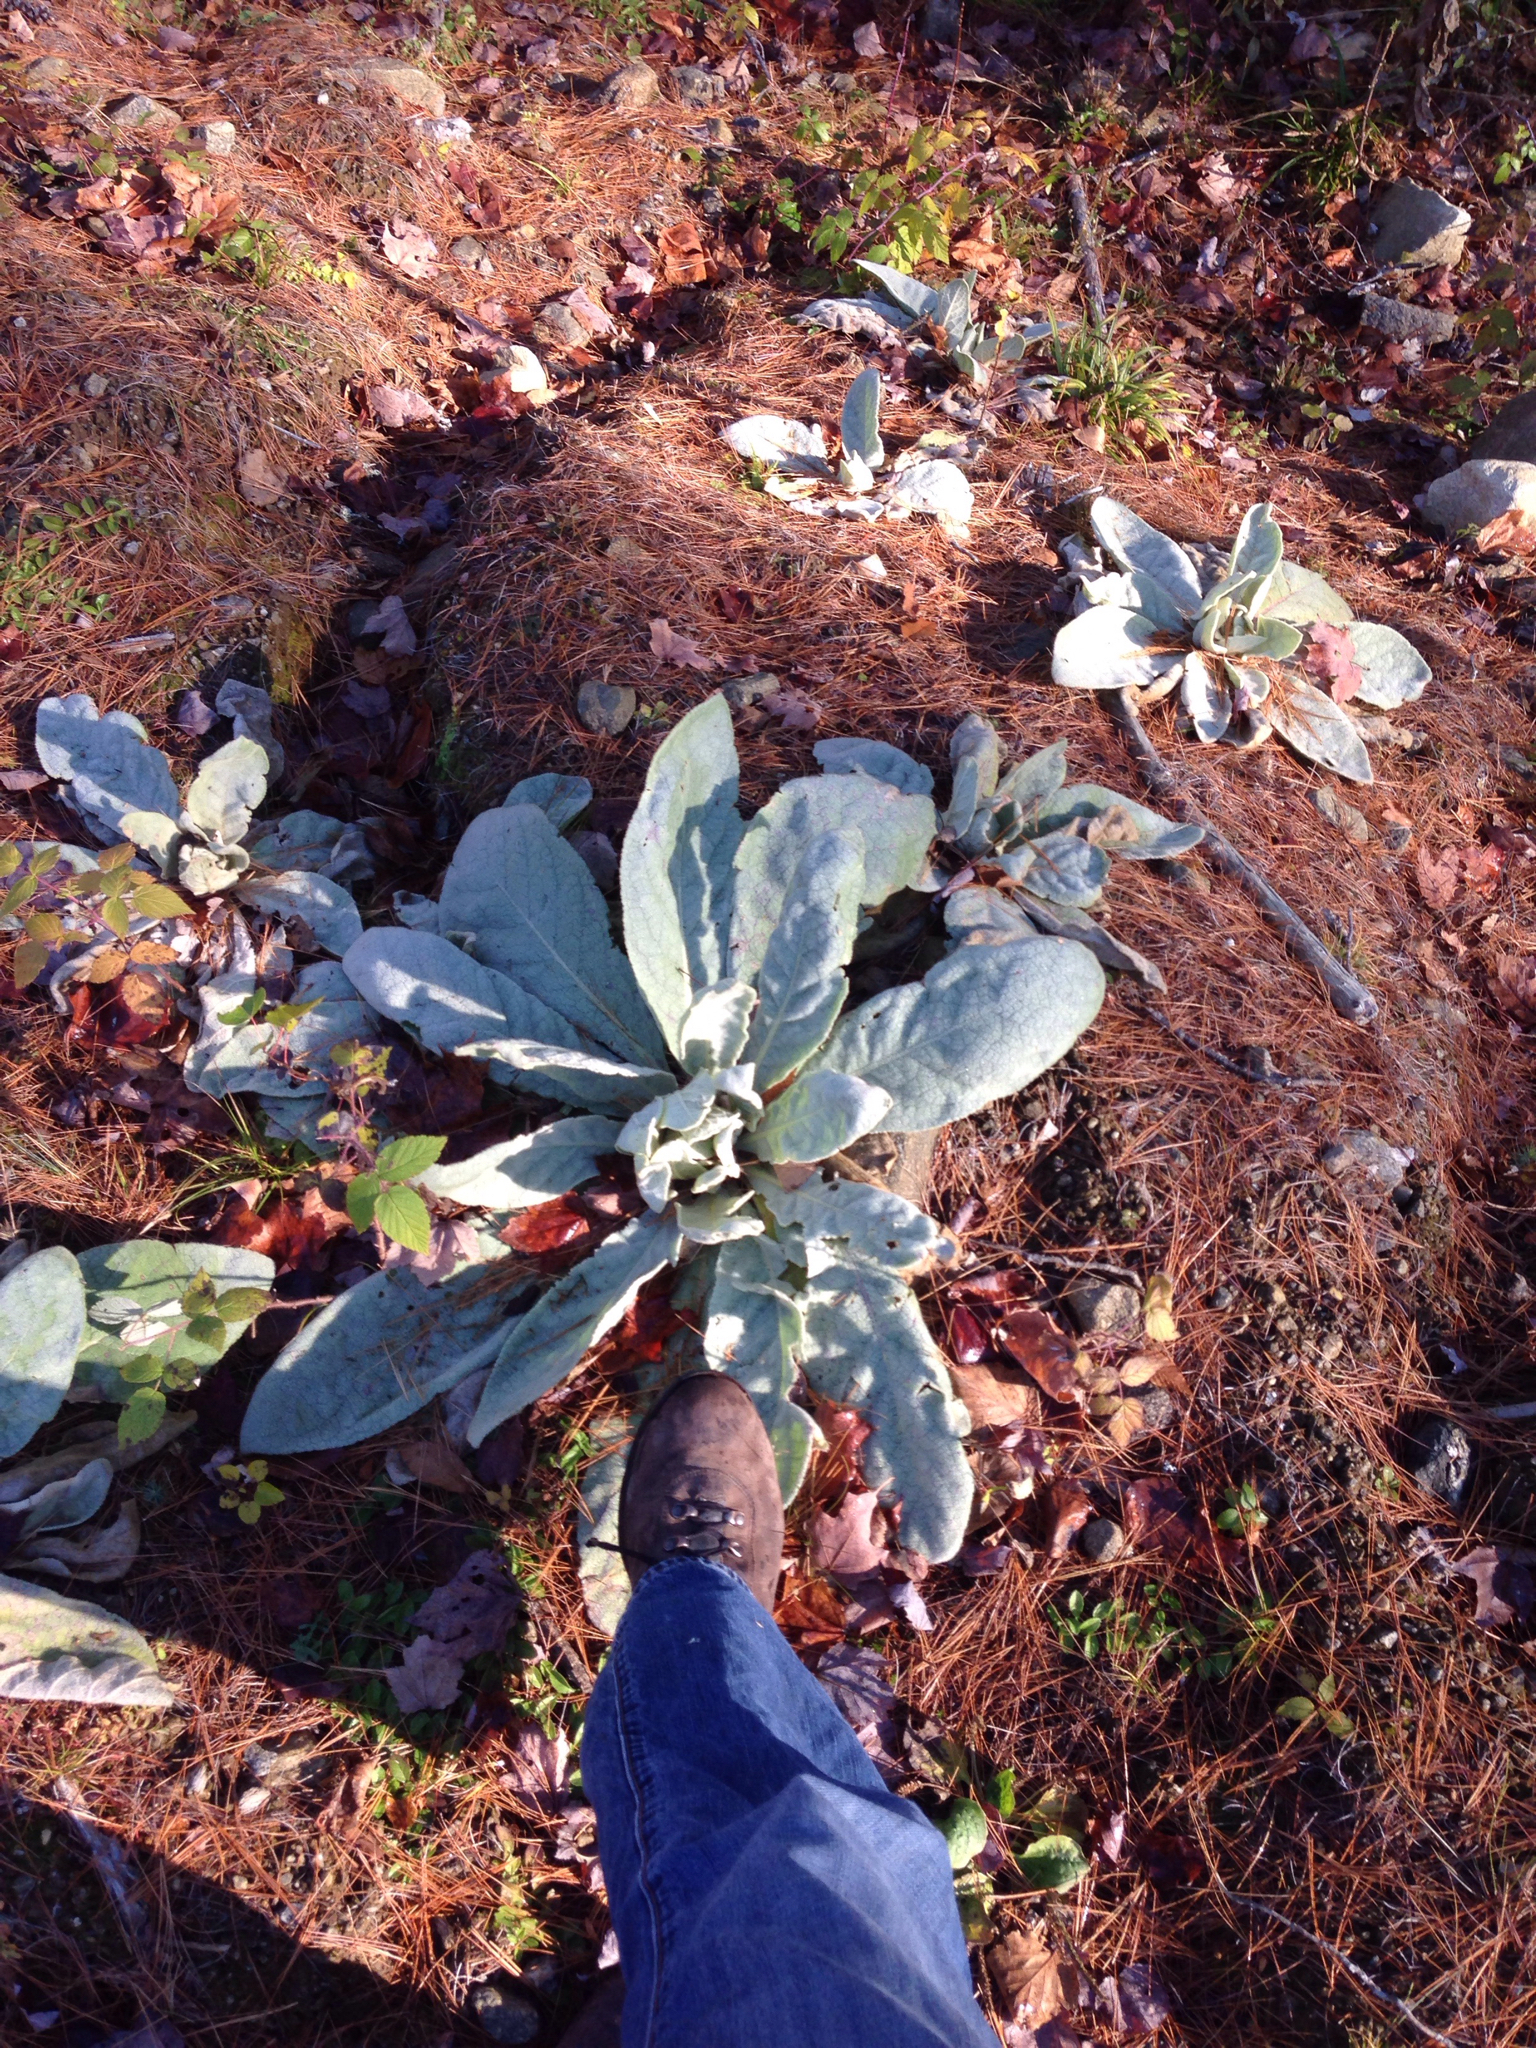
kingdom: Plantae
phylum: Tracheophyta
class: Magnoliopsida
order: Lamiales
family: Scrophulariaceae
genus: Verbascum
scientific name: Verbascum thapsus
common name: Common mullein
